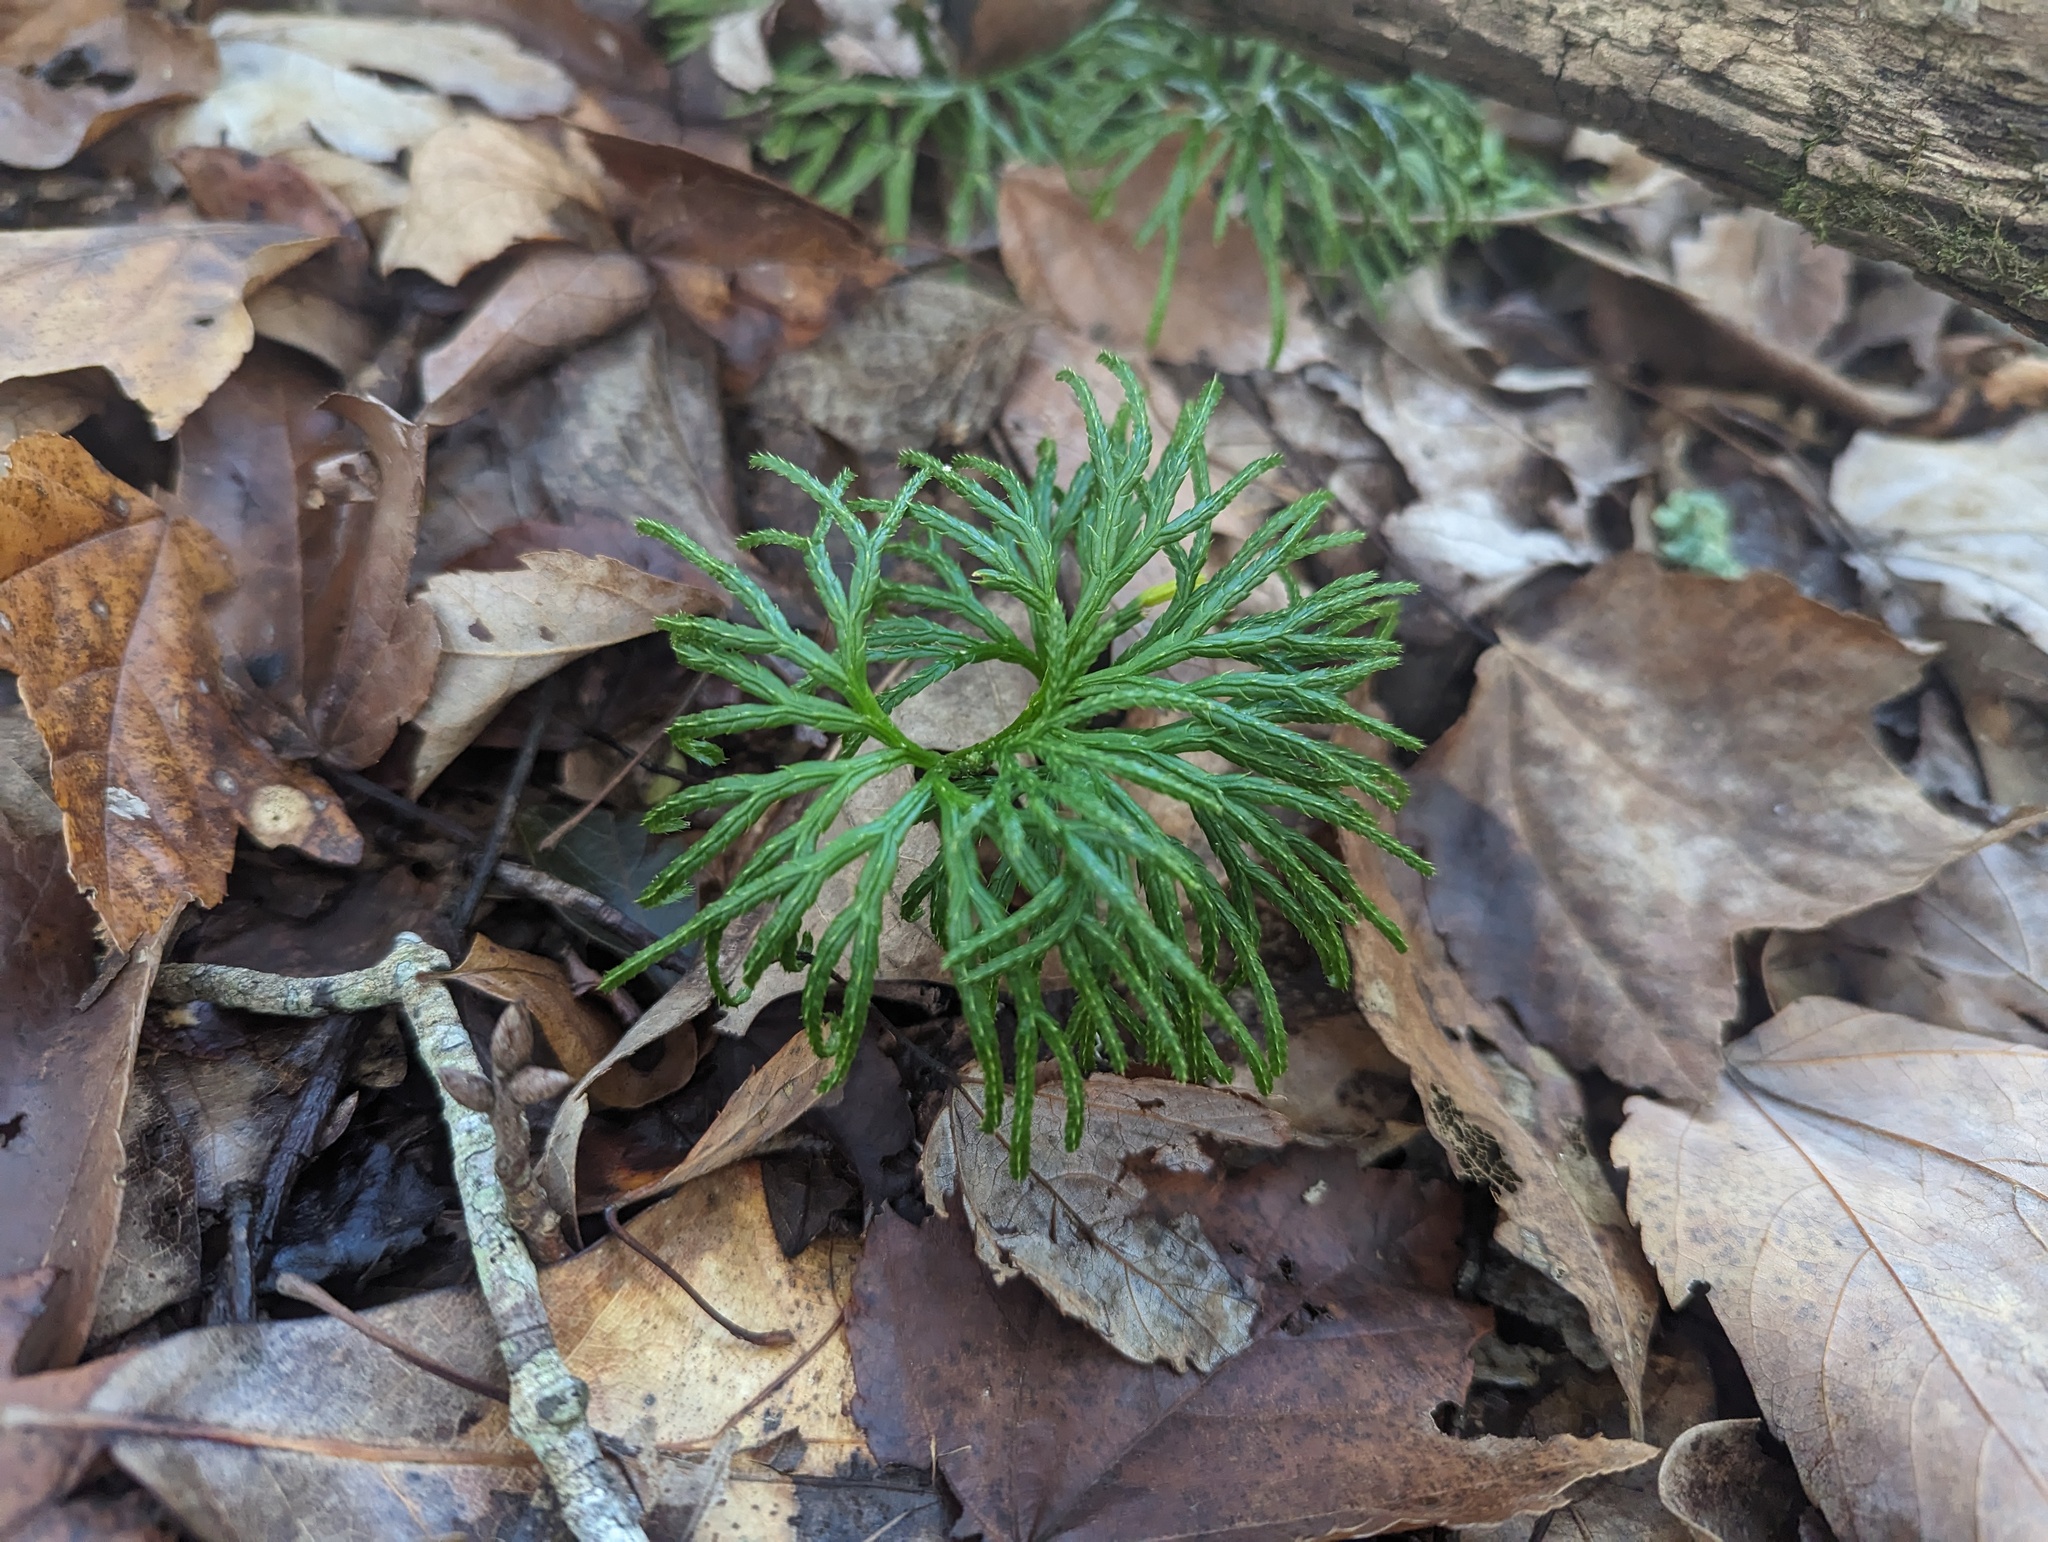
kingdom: Plantae
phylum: Tracheophyta
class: Lycopodiopsida
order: Lycopodiales
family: Lycopodiaceae
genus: Diphasiastrum
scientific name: Diphasiastrum digitatum
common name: Southern running-pine
